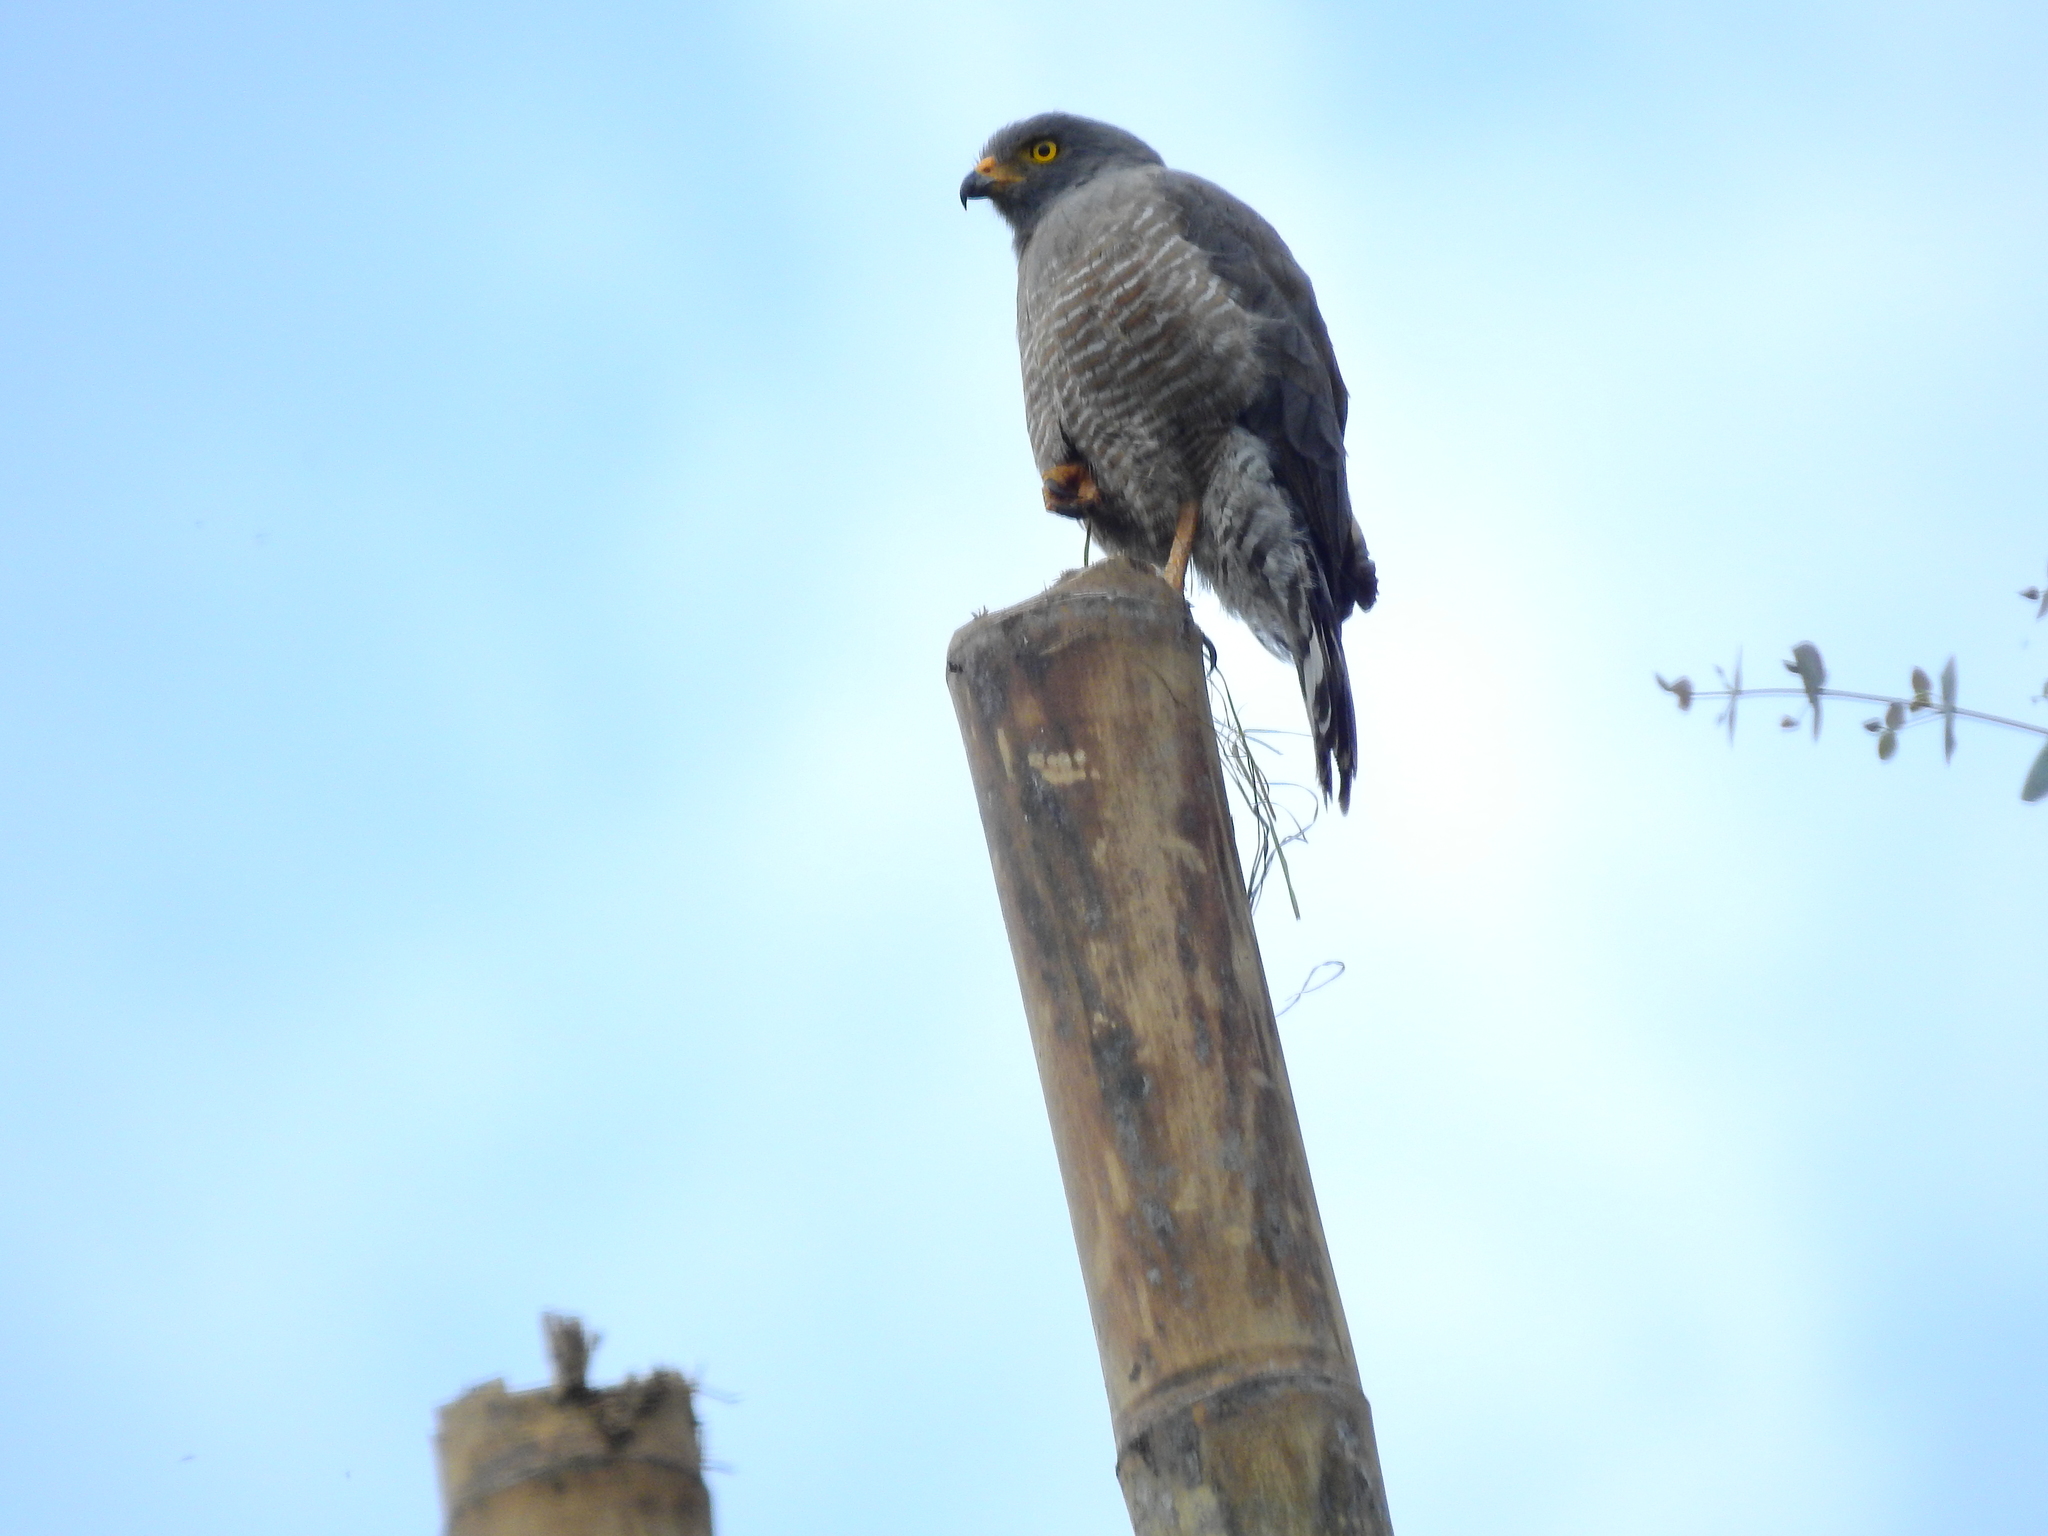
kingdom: Animalia
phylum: Chordata
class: Aves
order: Accipitriformes
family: Accipitridae
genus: Rupornis
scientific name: Rupornis magnirostris
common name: Roadside hawk
